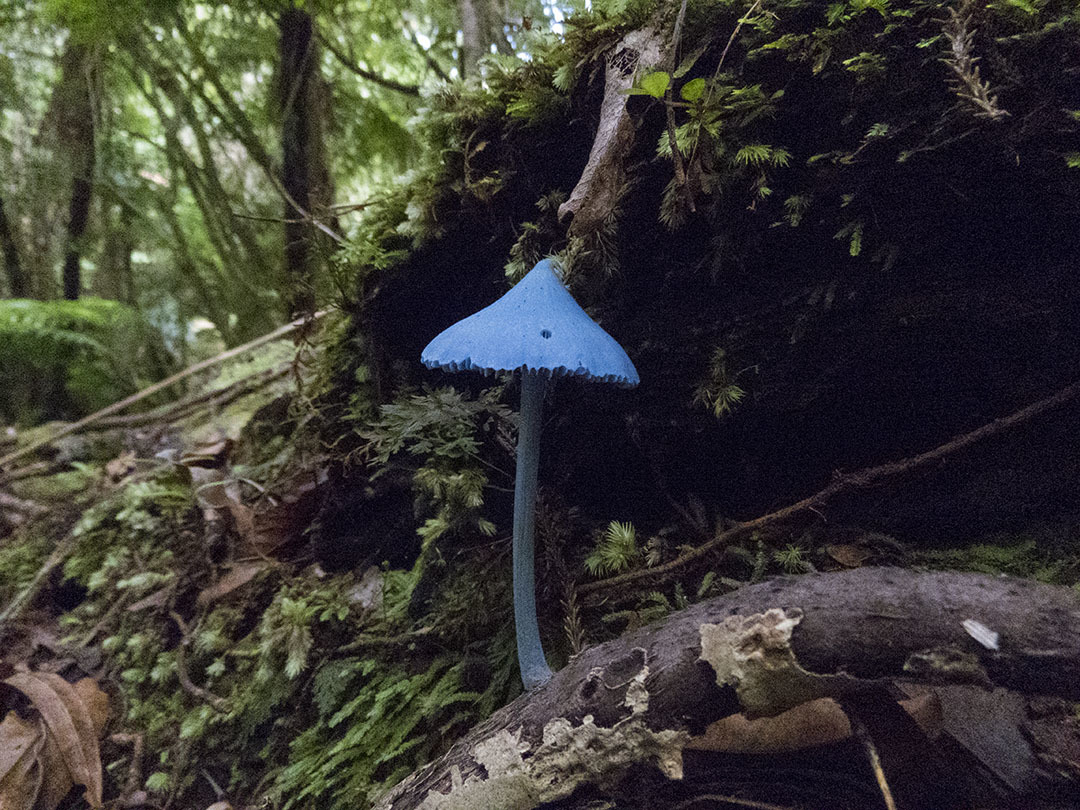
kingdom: Fungi
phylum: Basidiomycota
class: Agaricomycetes
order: Agaricales
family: Entolomataceae
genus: Entoloma
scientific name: Entoloma hochstetteri
